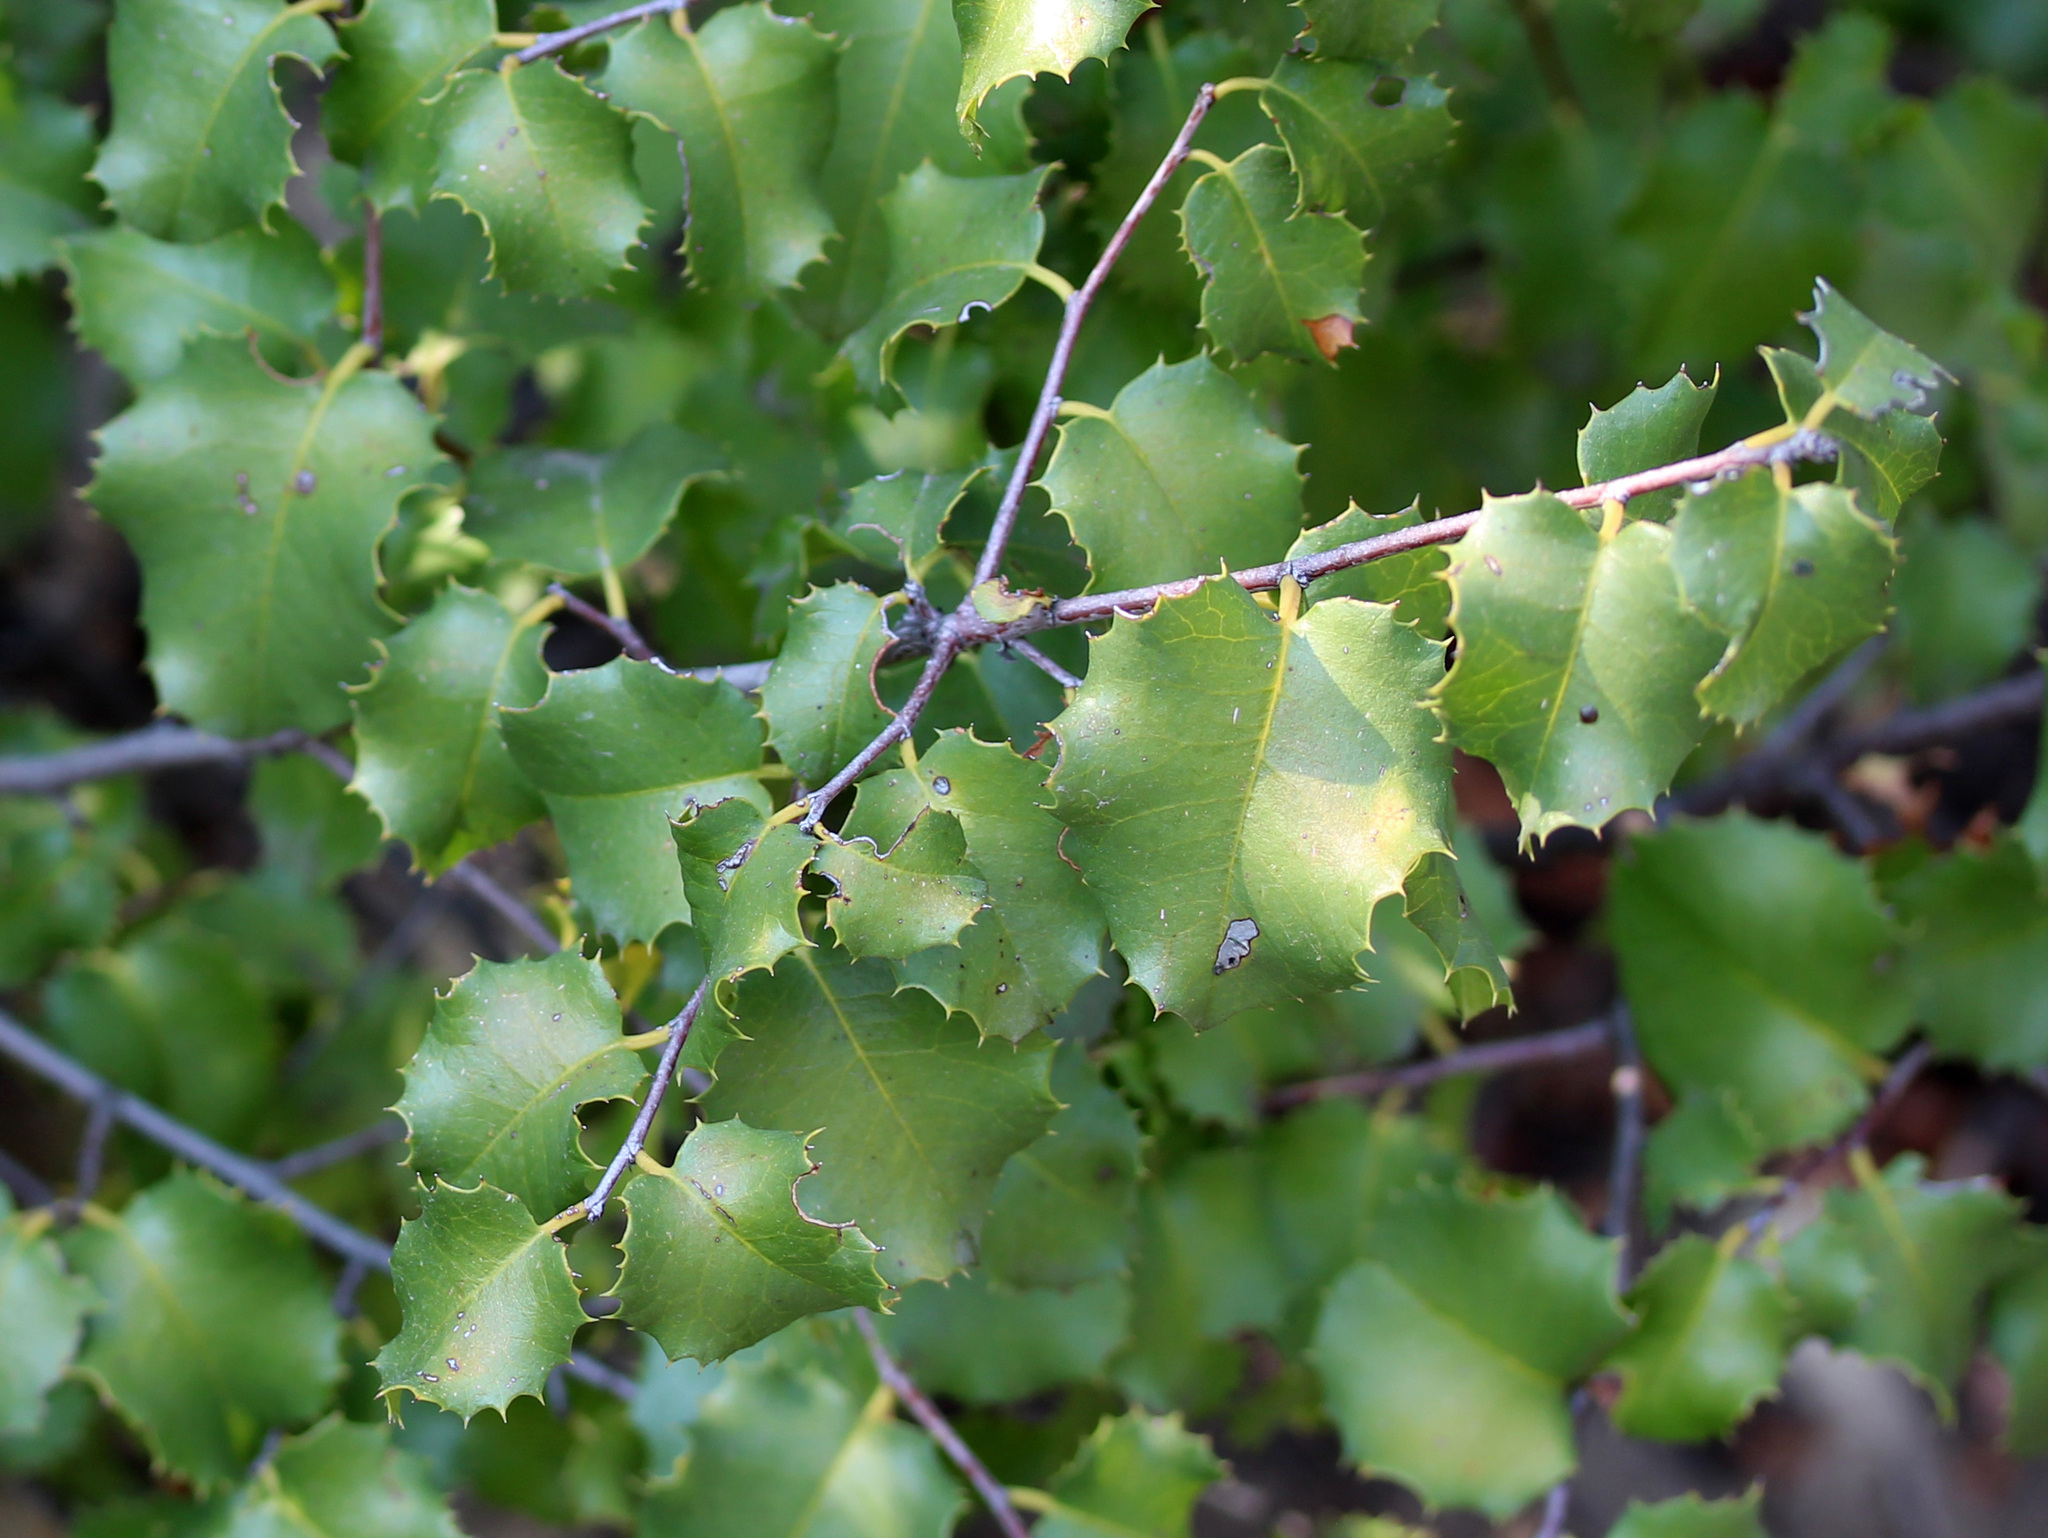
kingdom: Plantae
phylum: Tracheophyta
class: Magnoliopsida
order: Rosales
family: Rosaceae
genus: Prunus
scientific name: Prunus ilicifolia
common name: Hollyleaf cherry
